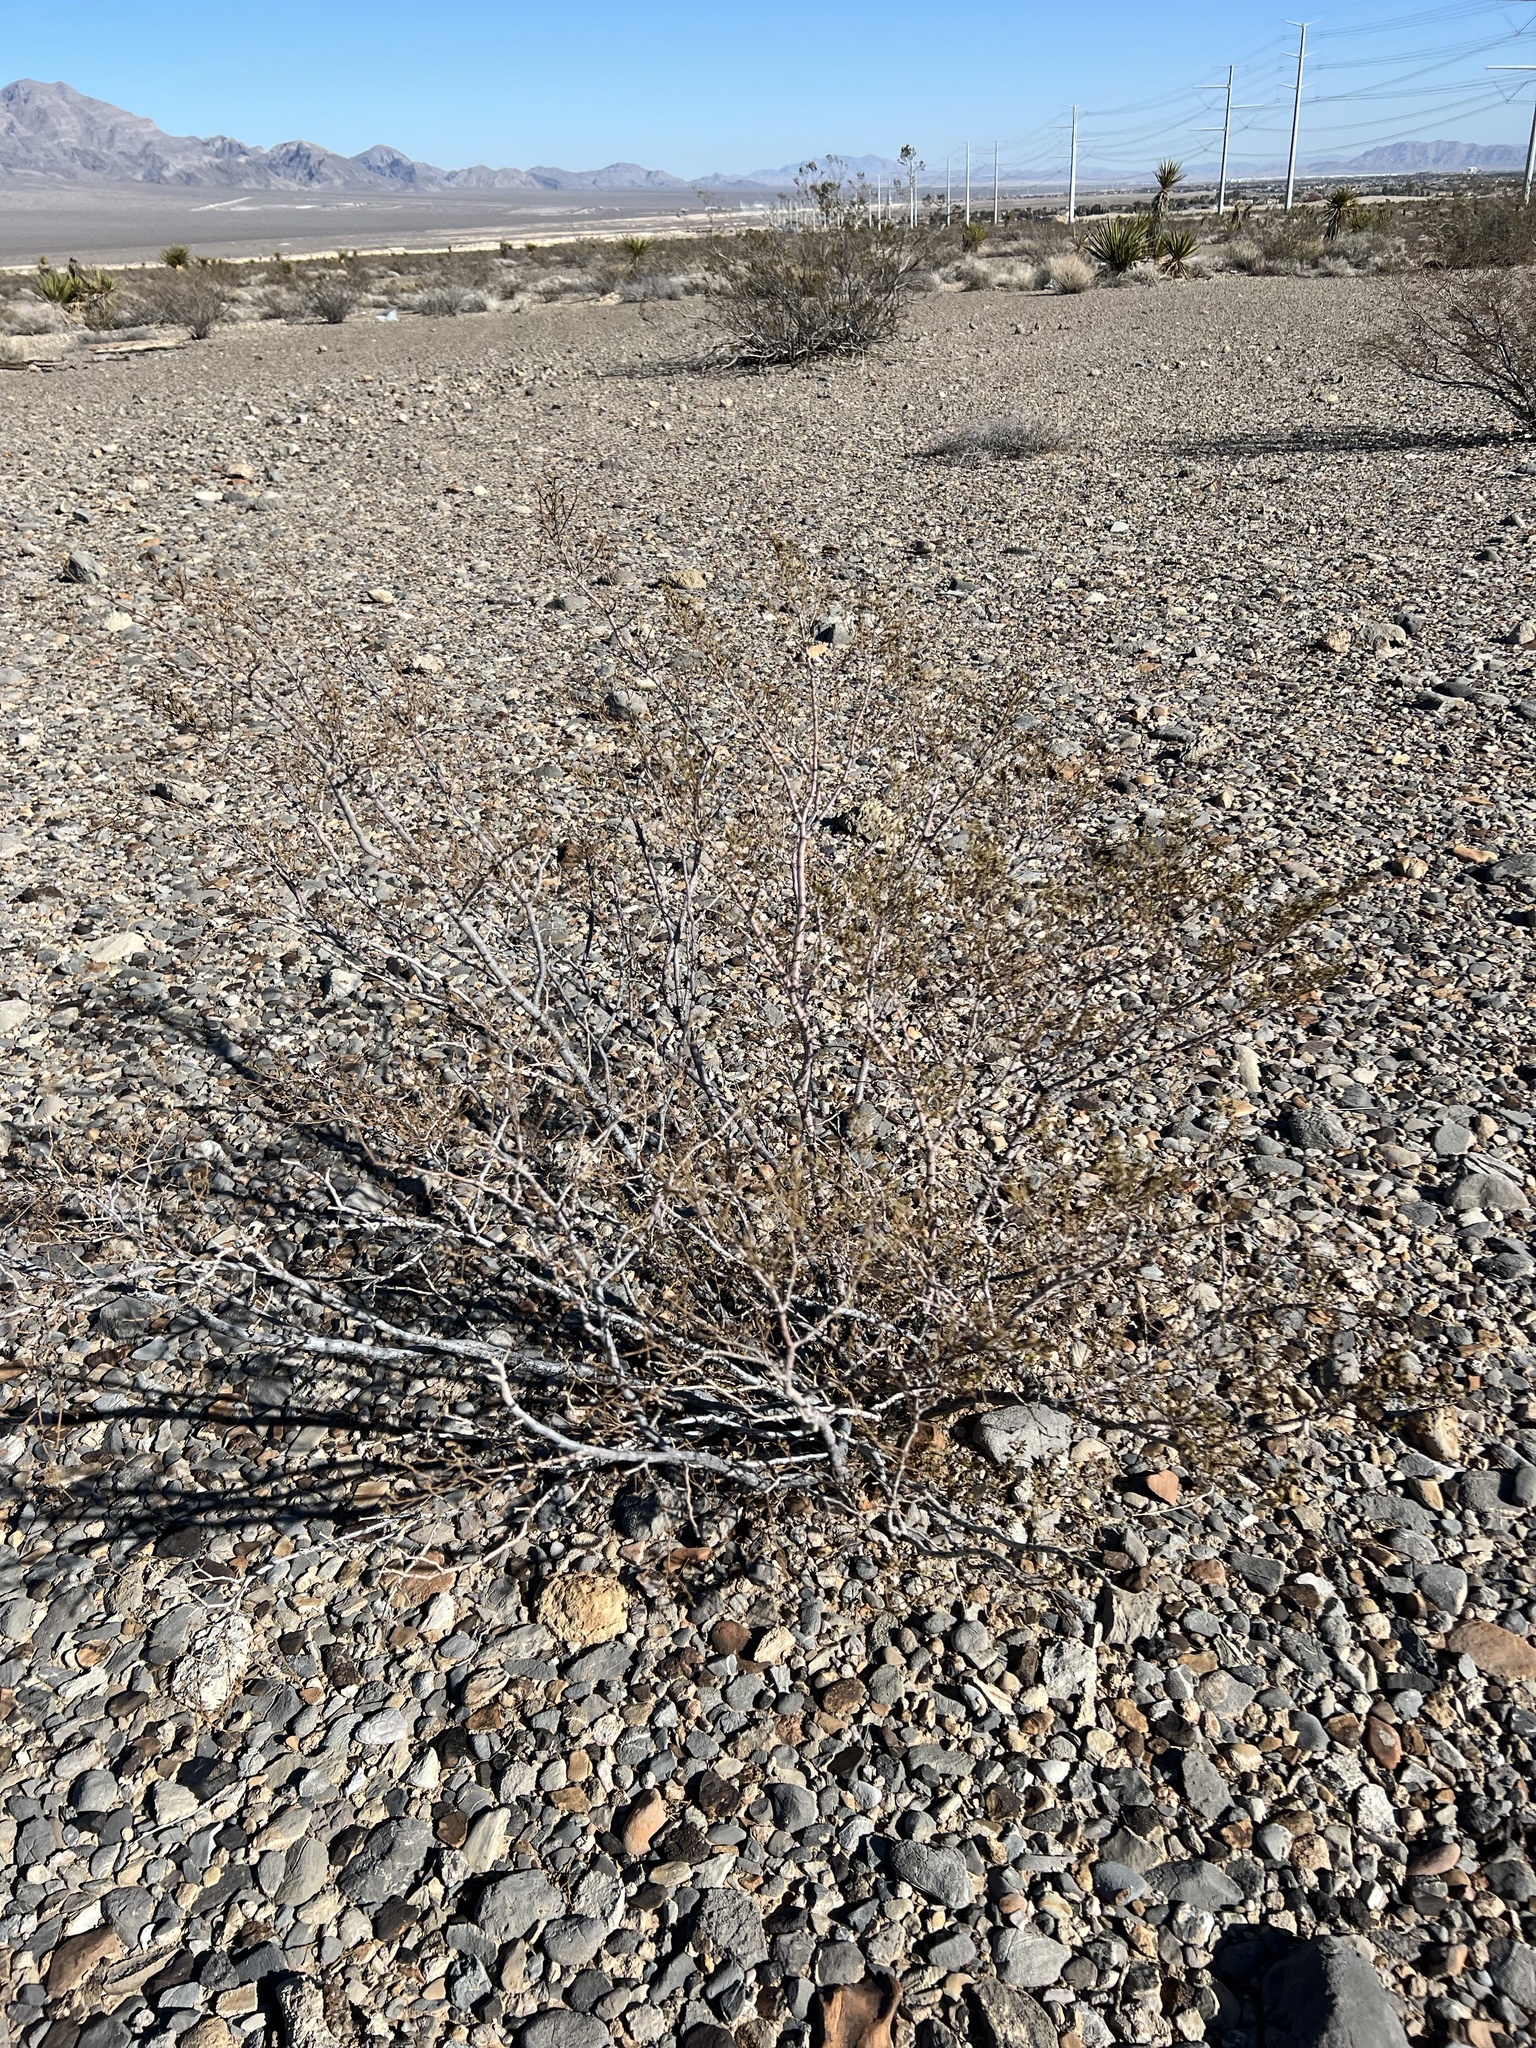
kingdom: Plantae
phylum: Tracheophyta
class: Magnoliopsida
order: Zygophyllales
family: Zygophyllaceae
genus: Larrea
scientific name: Larrea tridentata
